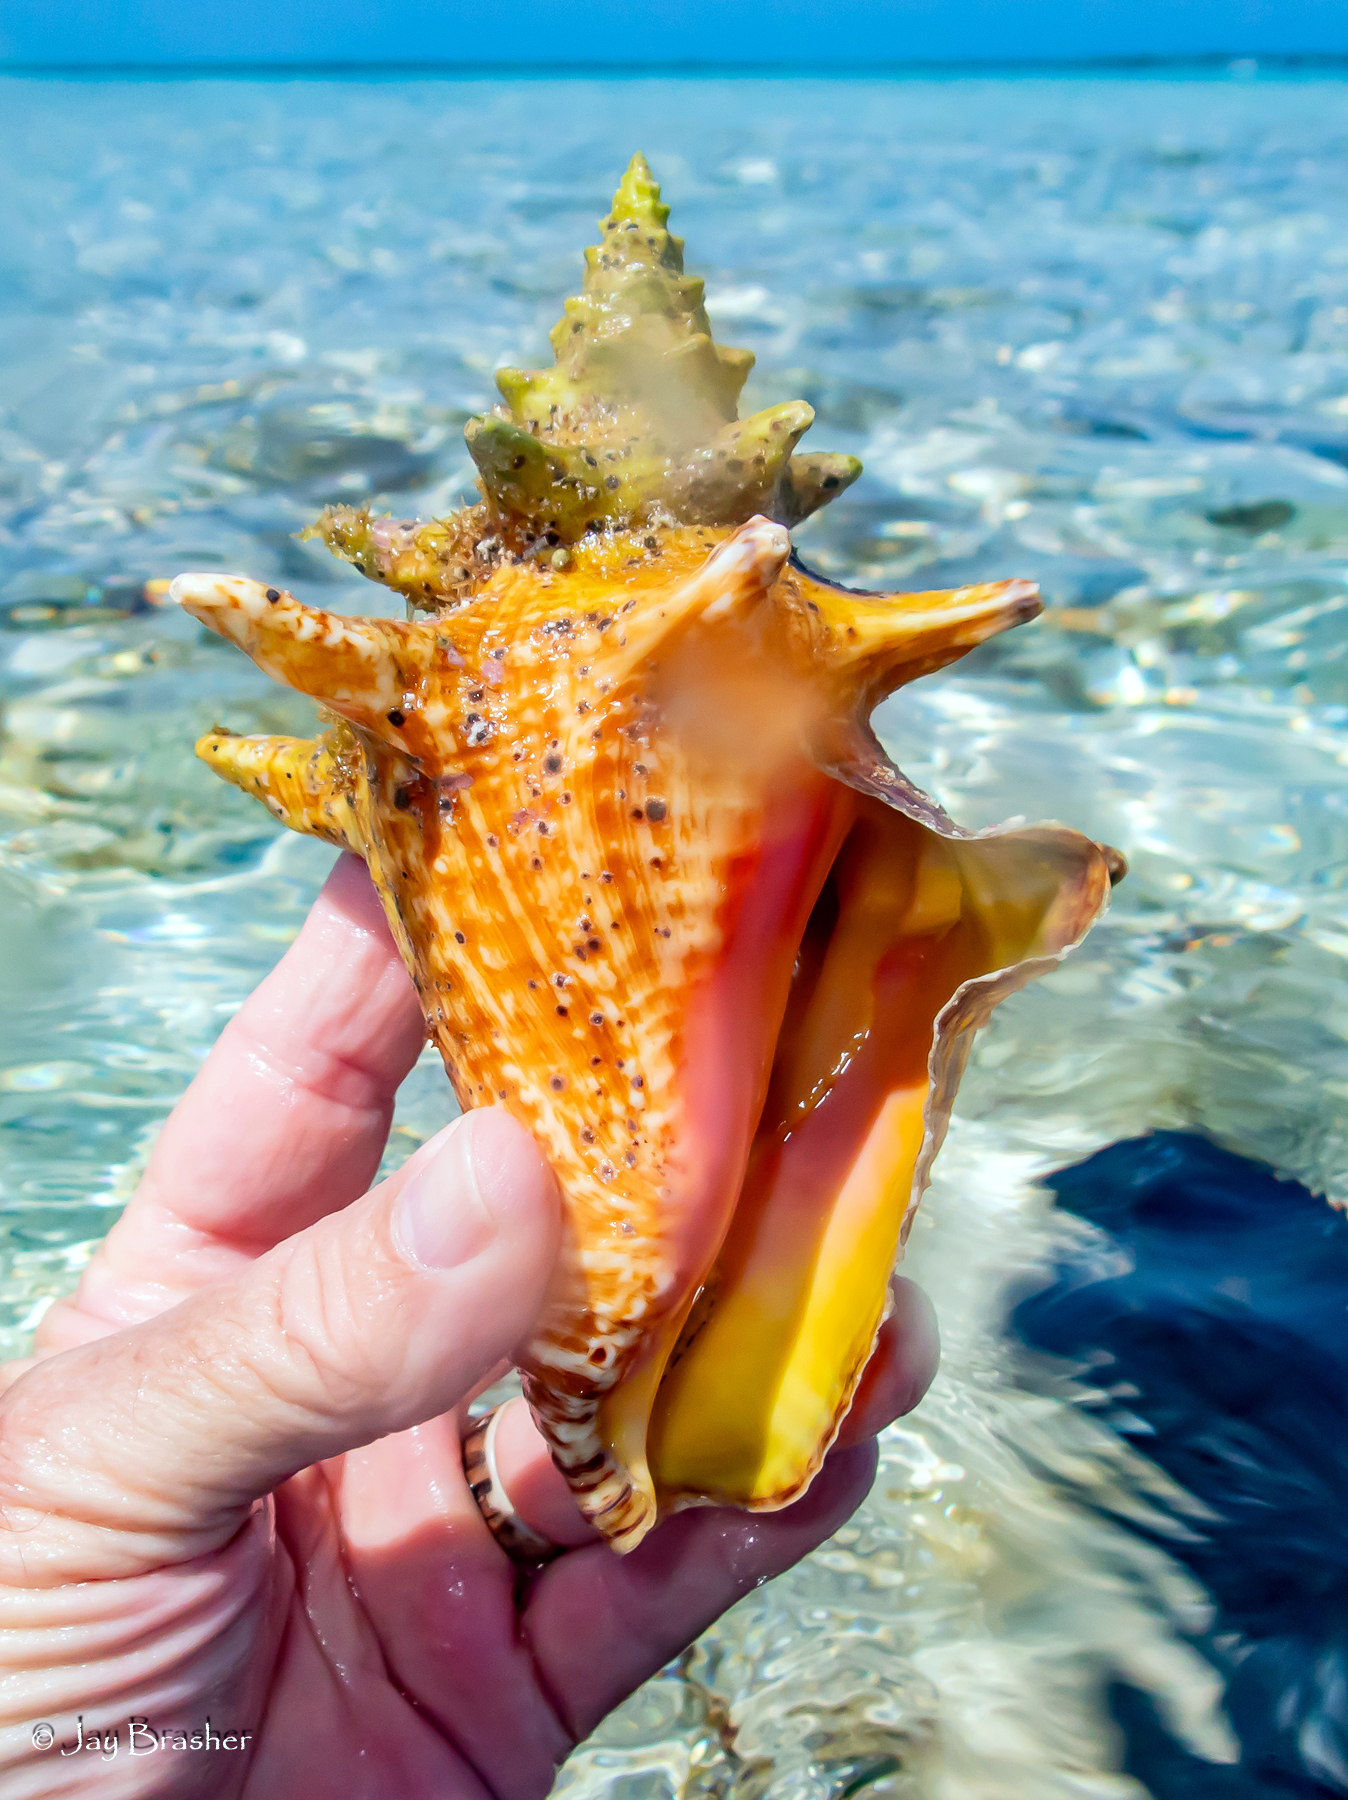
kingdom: Animalia
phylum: Mollusca
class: Gastropoda
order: Littorinimorpha
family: Strombidae
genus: Aliger
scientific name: Aliger gigas
